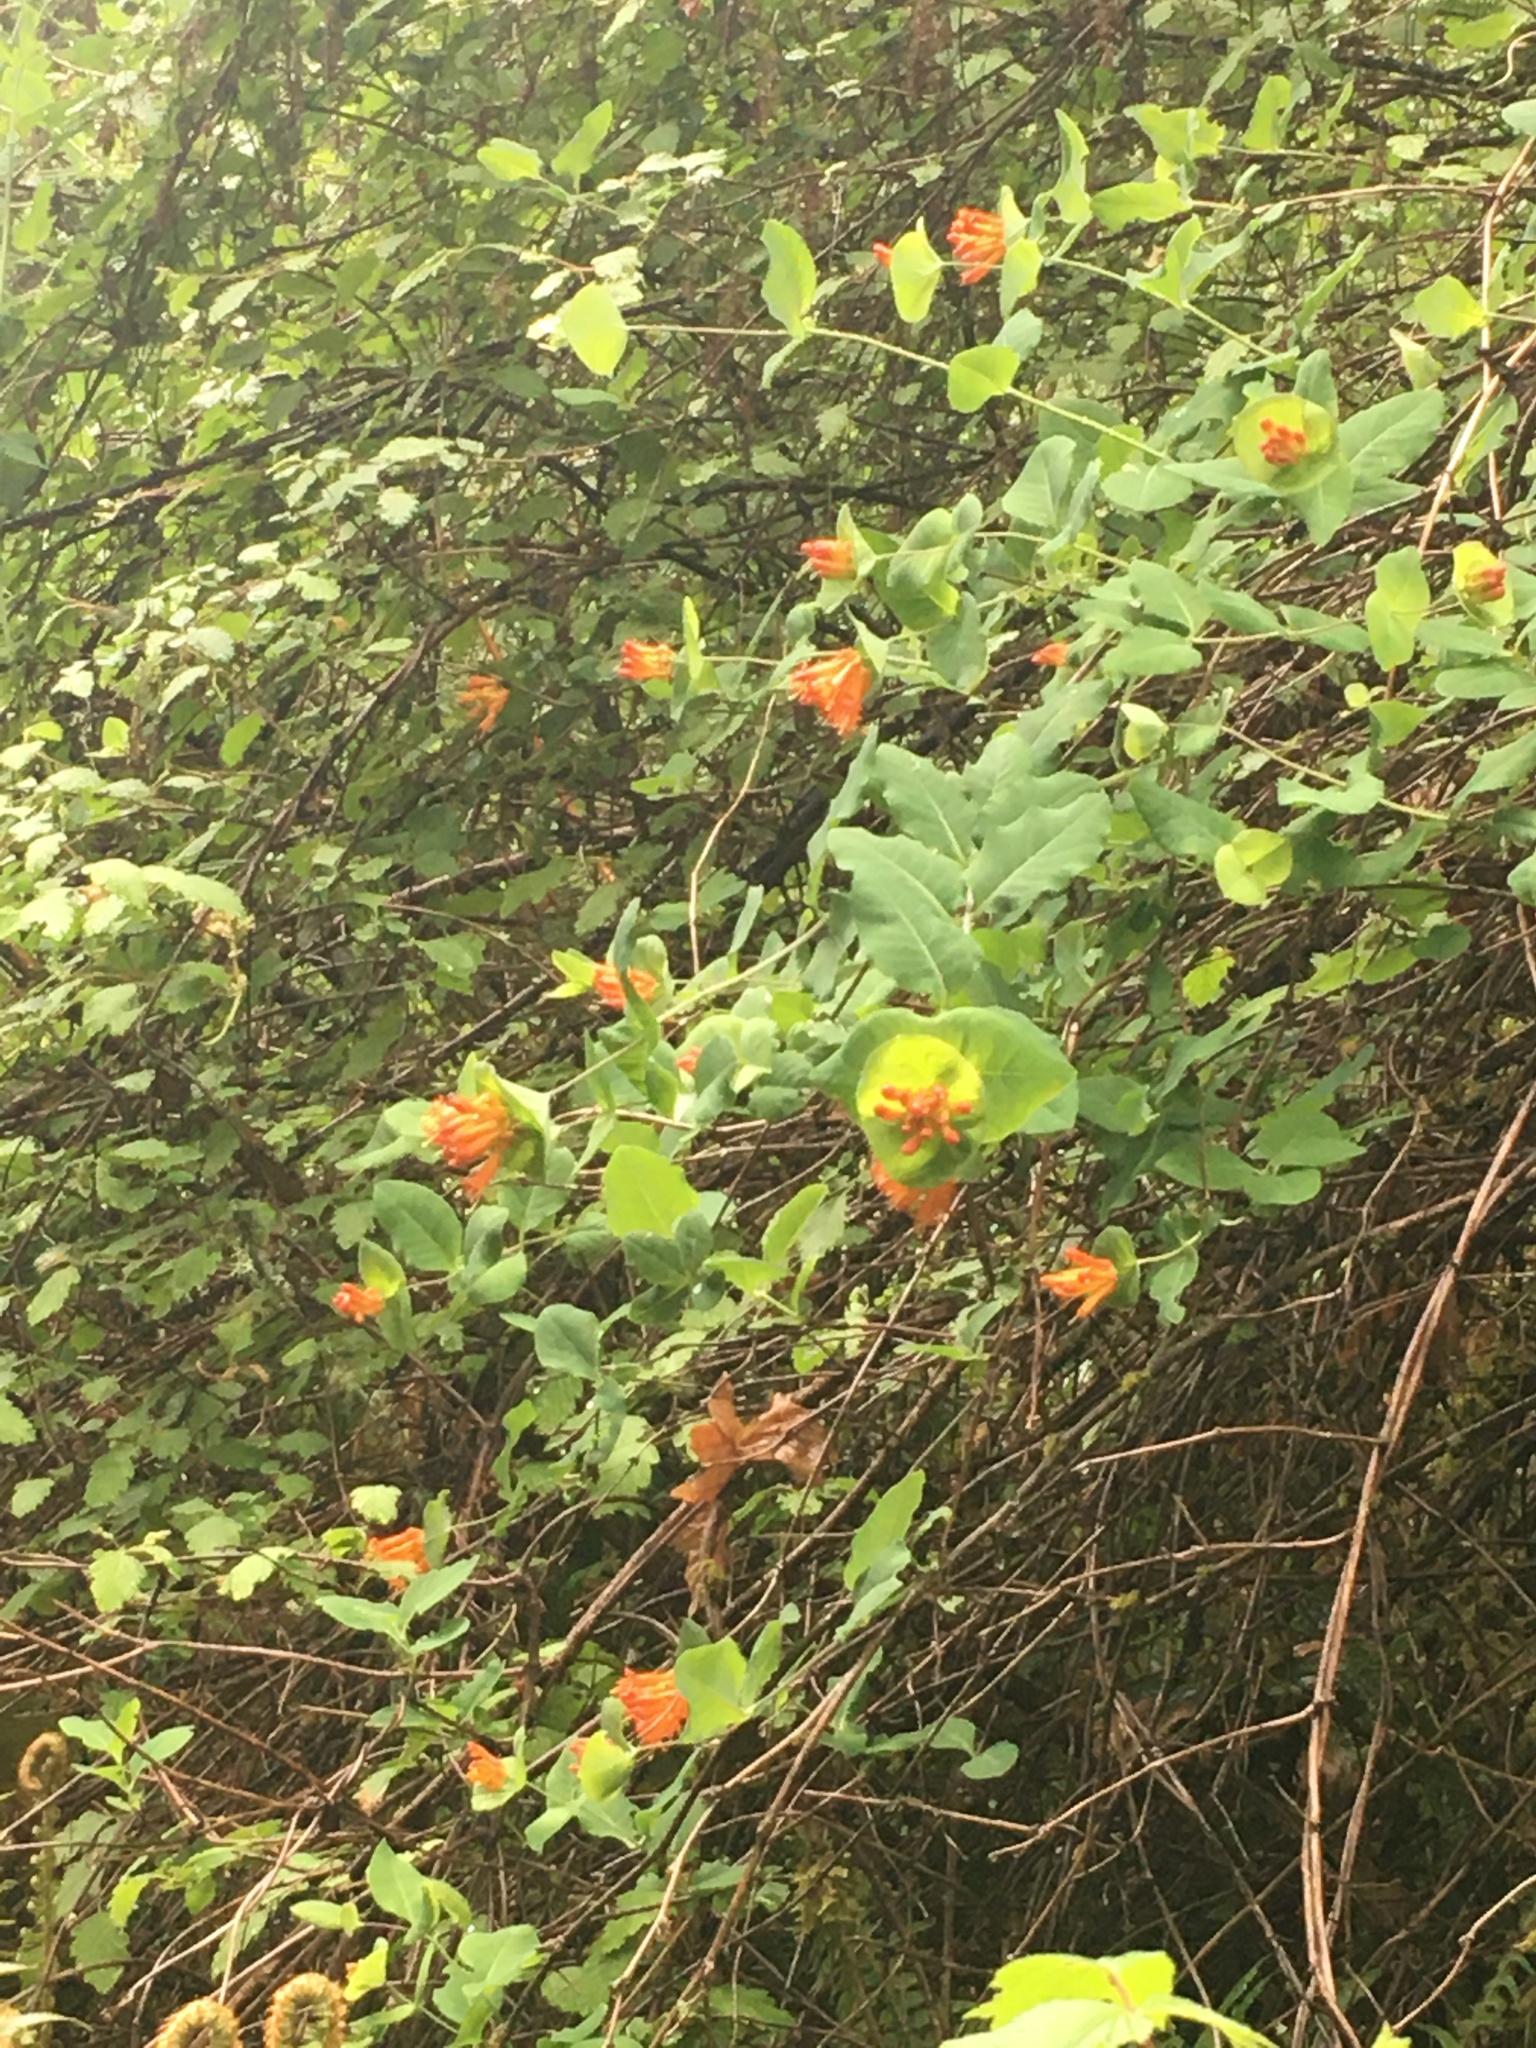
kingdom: Plantae
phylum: Tracheophyta
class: Magnoliopsida
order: Dipsacales
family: Caprifoliaceae
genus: Lonicera
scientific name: Lonicera ciliosa
